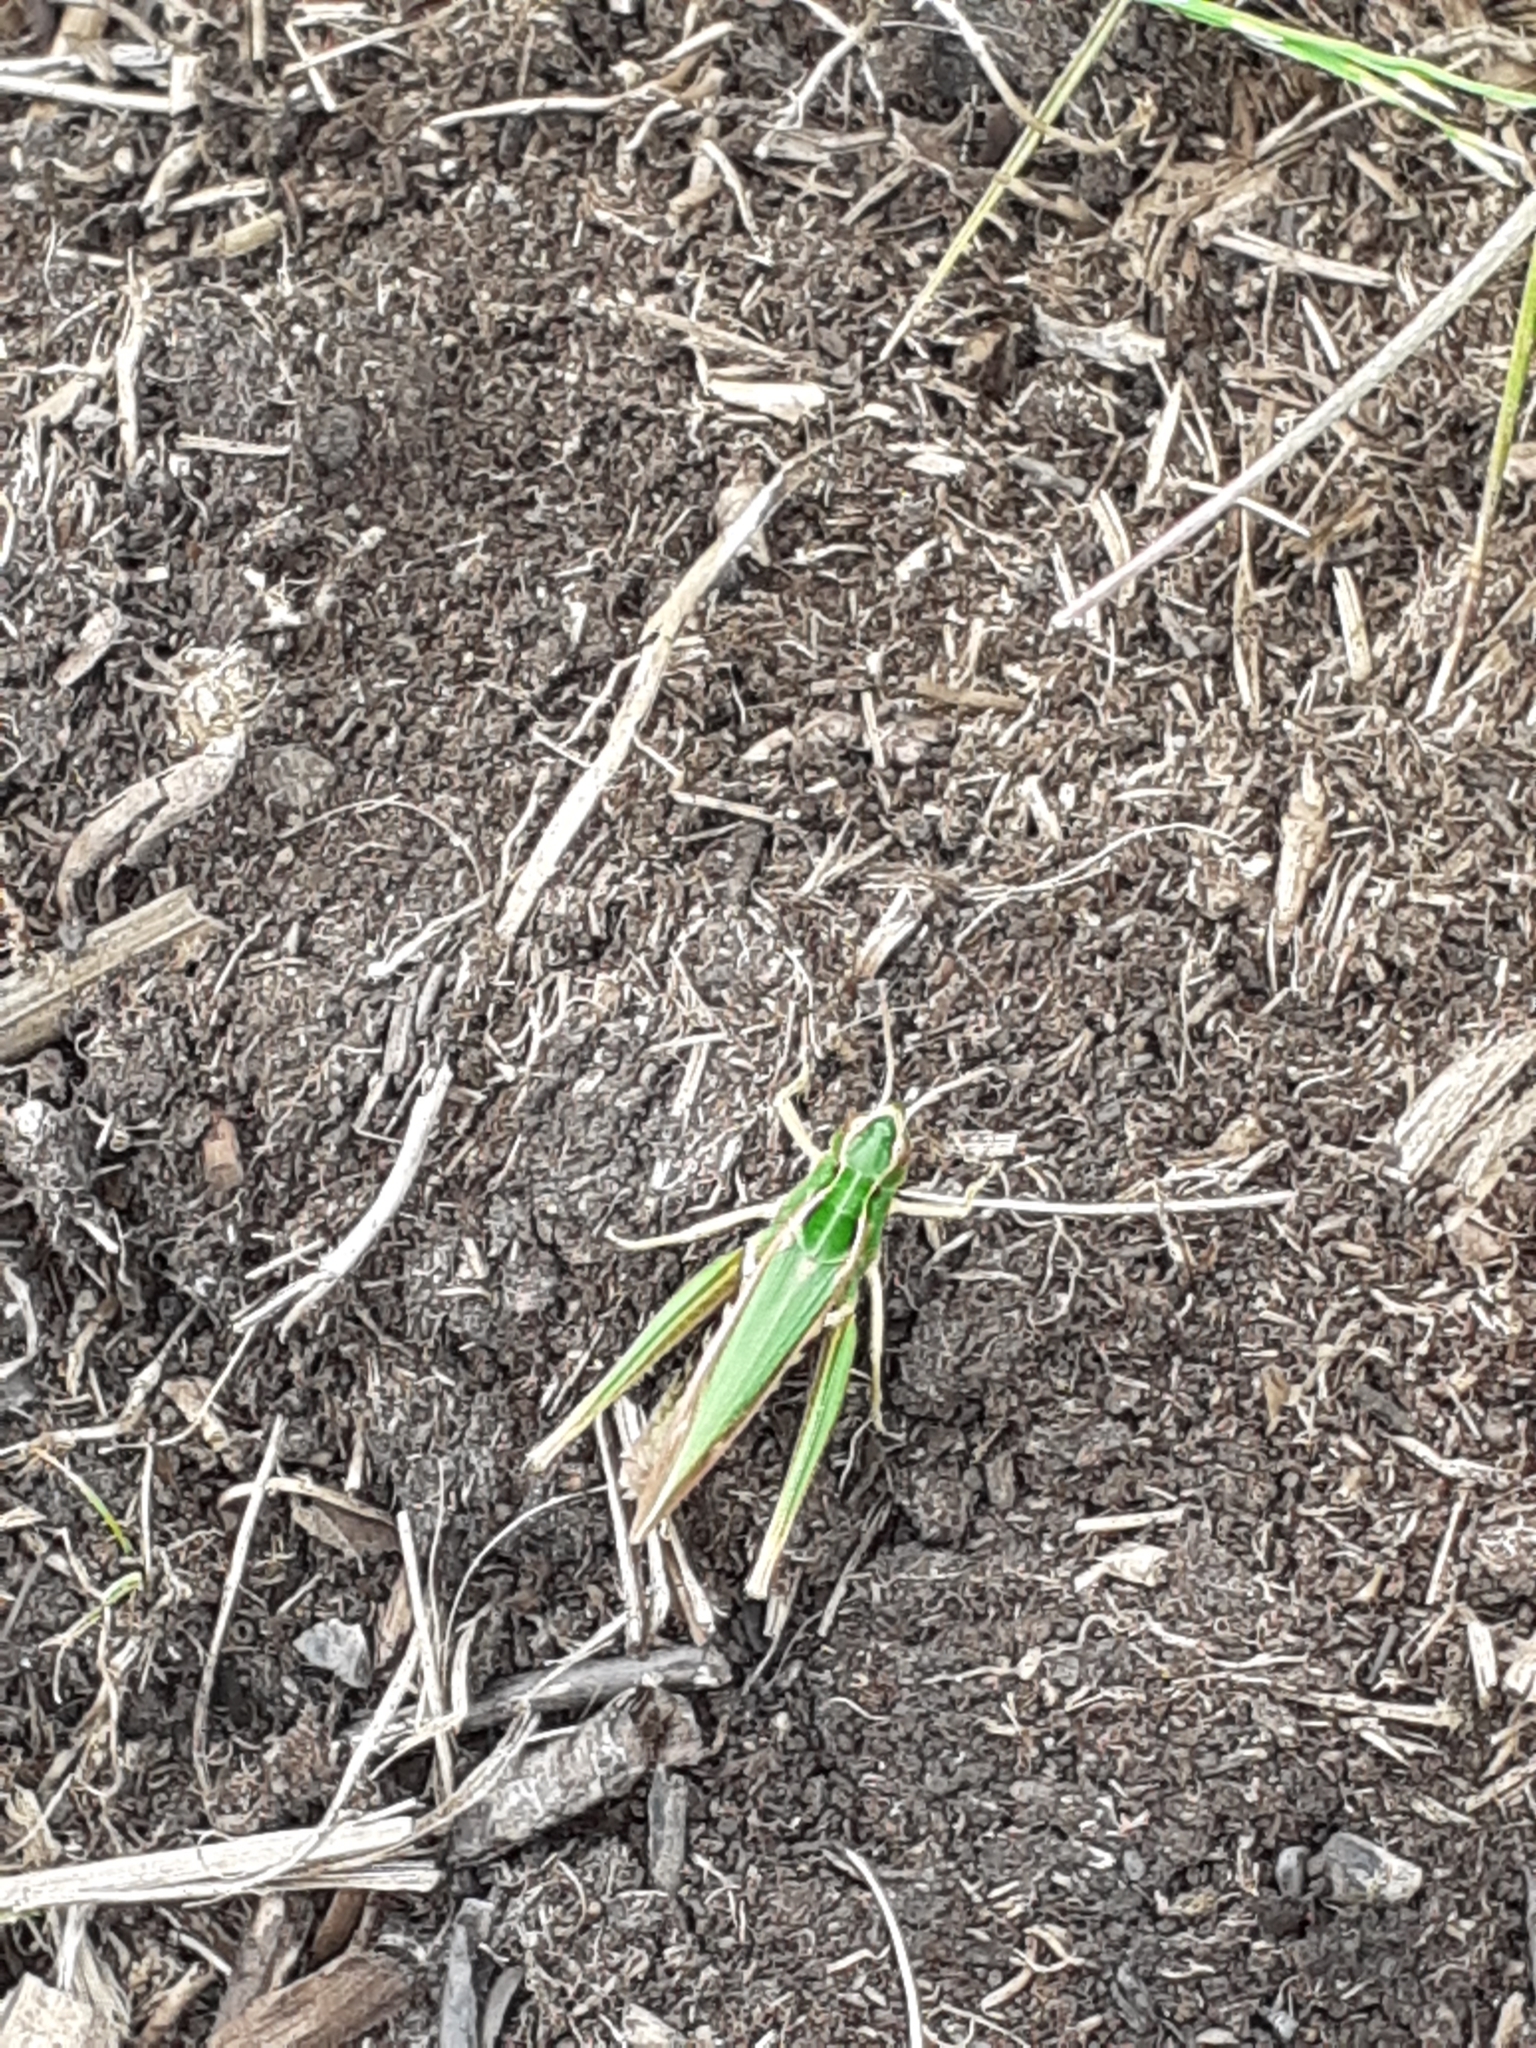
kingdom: Animalia
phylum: Arthropoda
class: Insecta
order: Orthoptera
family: Acrididae
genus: Omocestus
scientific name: Omocestus viridulus
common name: Common green grasshopper
